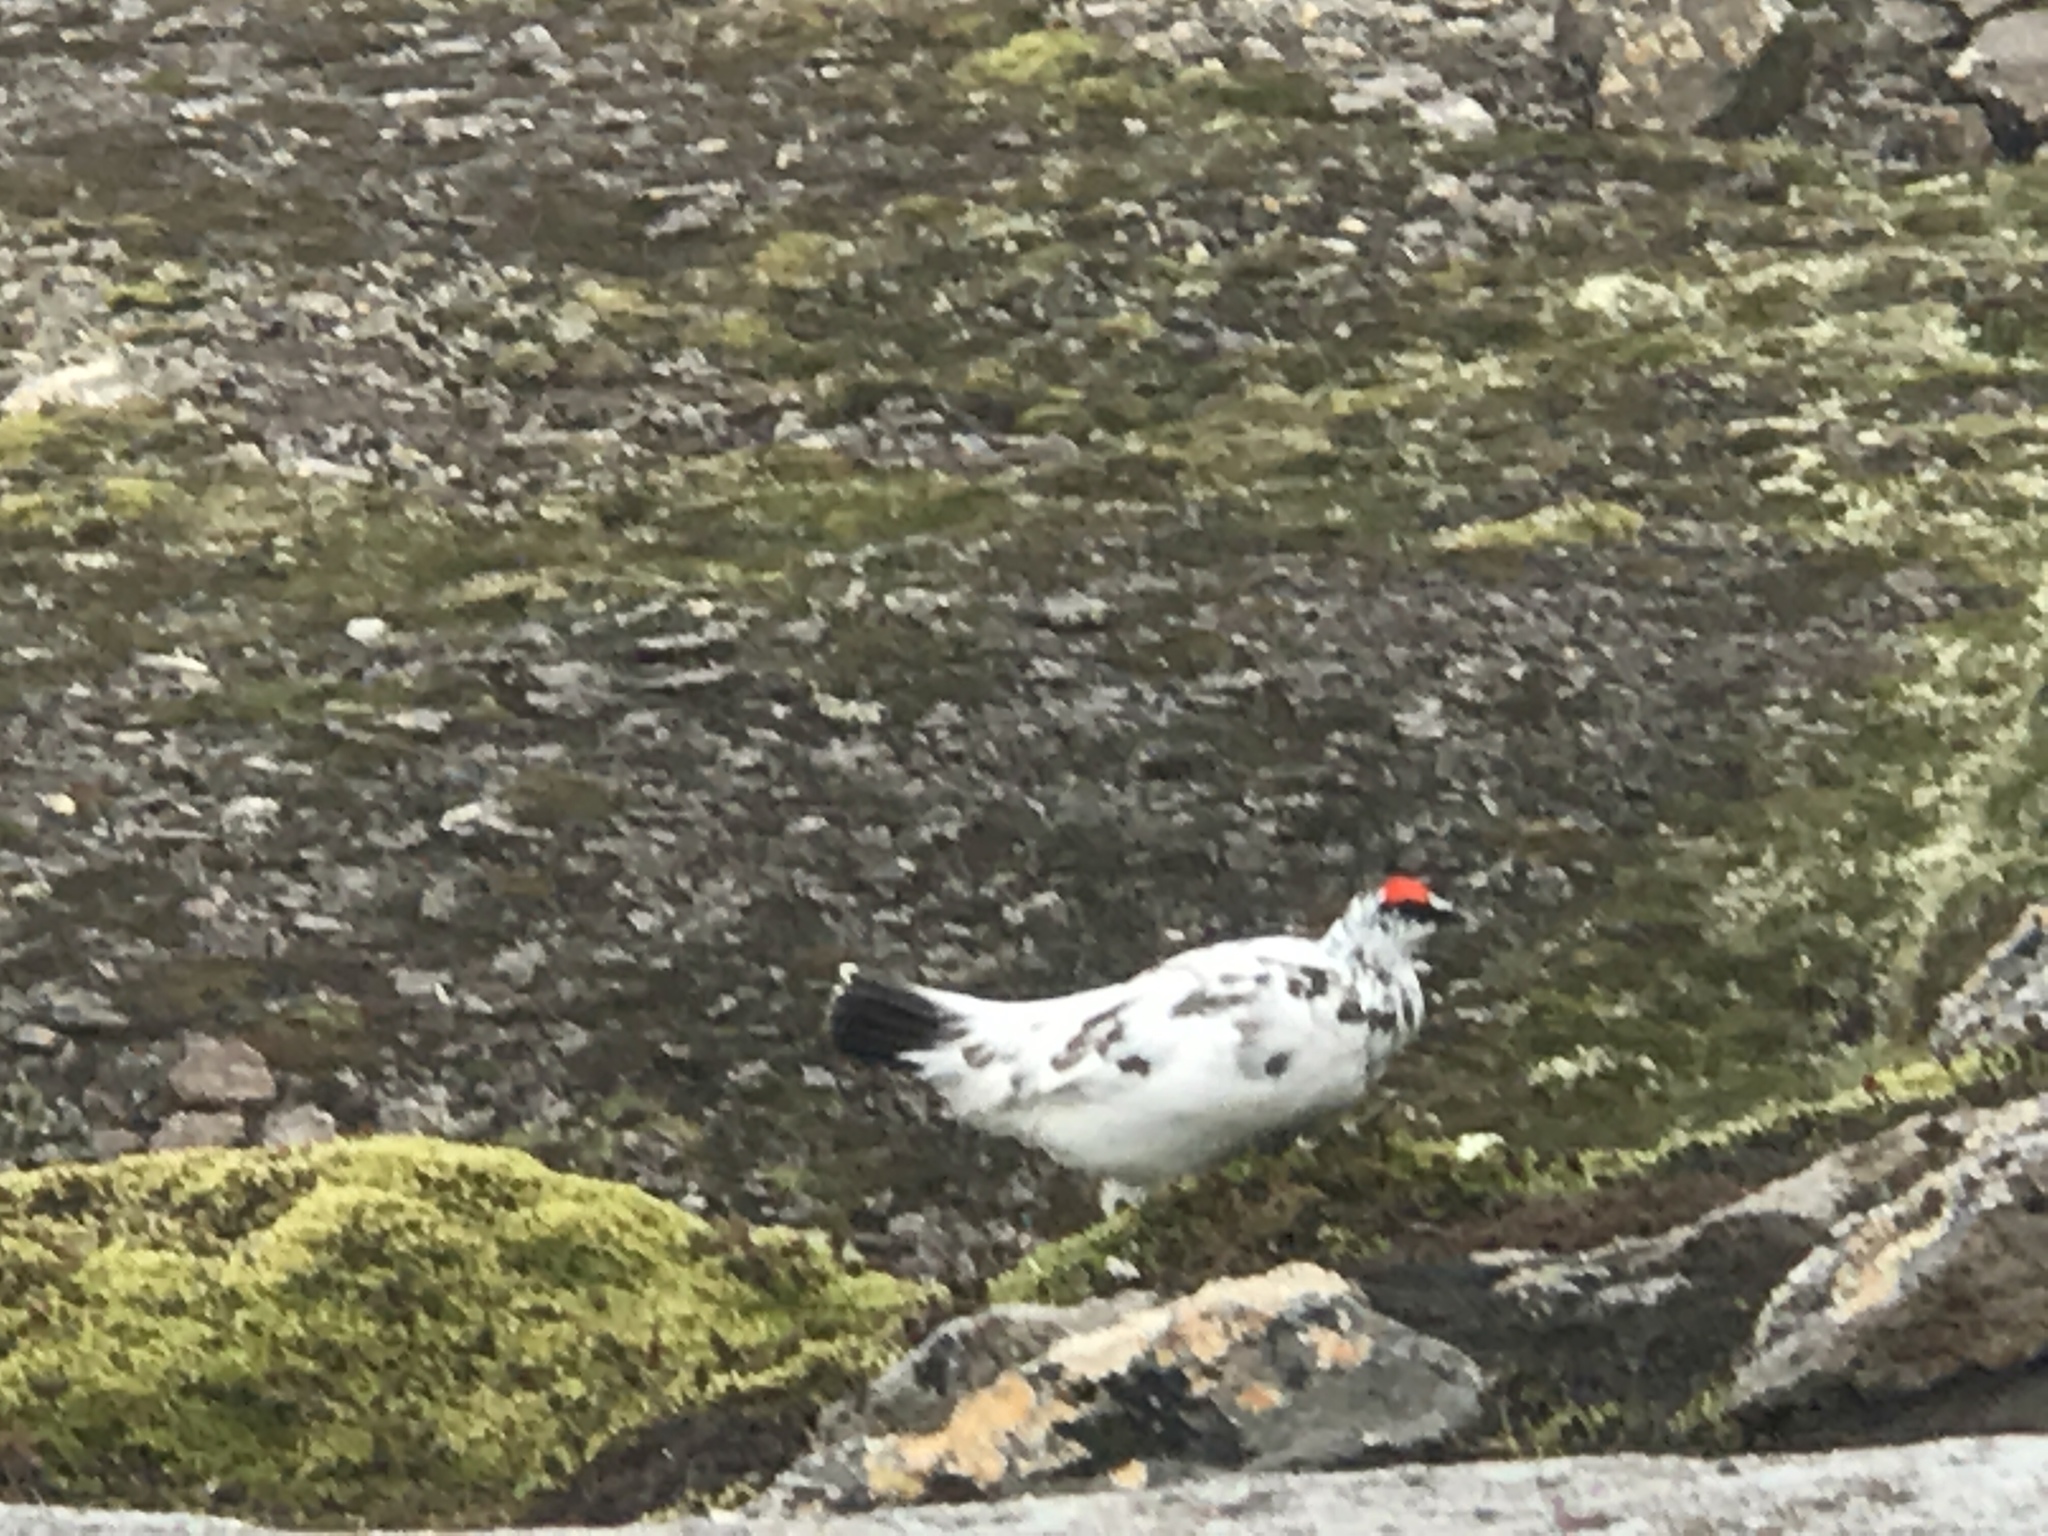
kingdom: Animalia
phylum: Chordata
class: Aves
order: Galliformes
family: Phasianidae
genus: Lagopus
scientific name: Lagopus muta
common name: Rock ptarmigan
